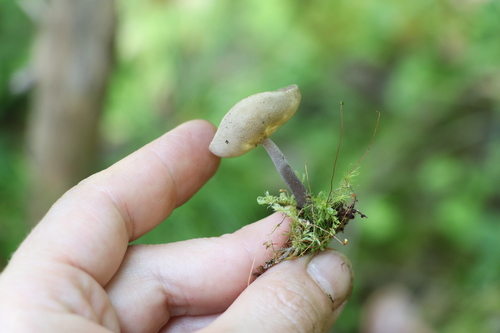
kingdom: Fungi
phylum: Ascomycota
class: Pezizomycetes
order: Pezizales
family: Helvellaceae
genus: Helvella
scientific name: Helvella macropus
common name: Felt saddle
